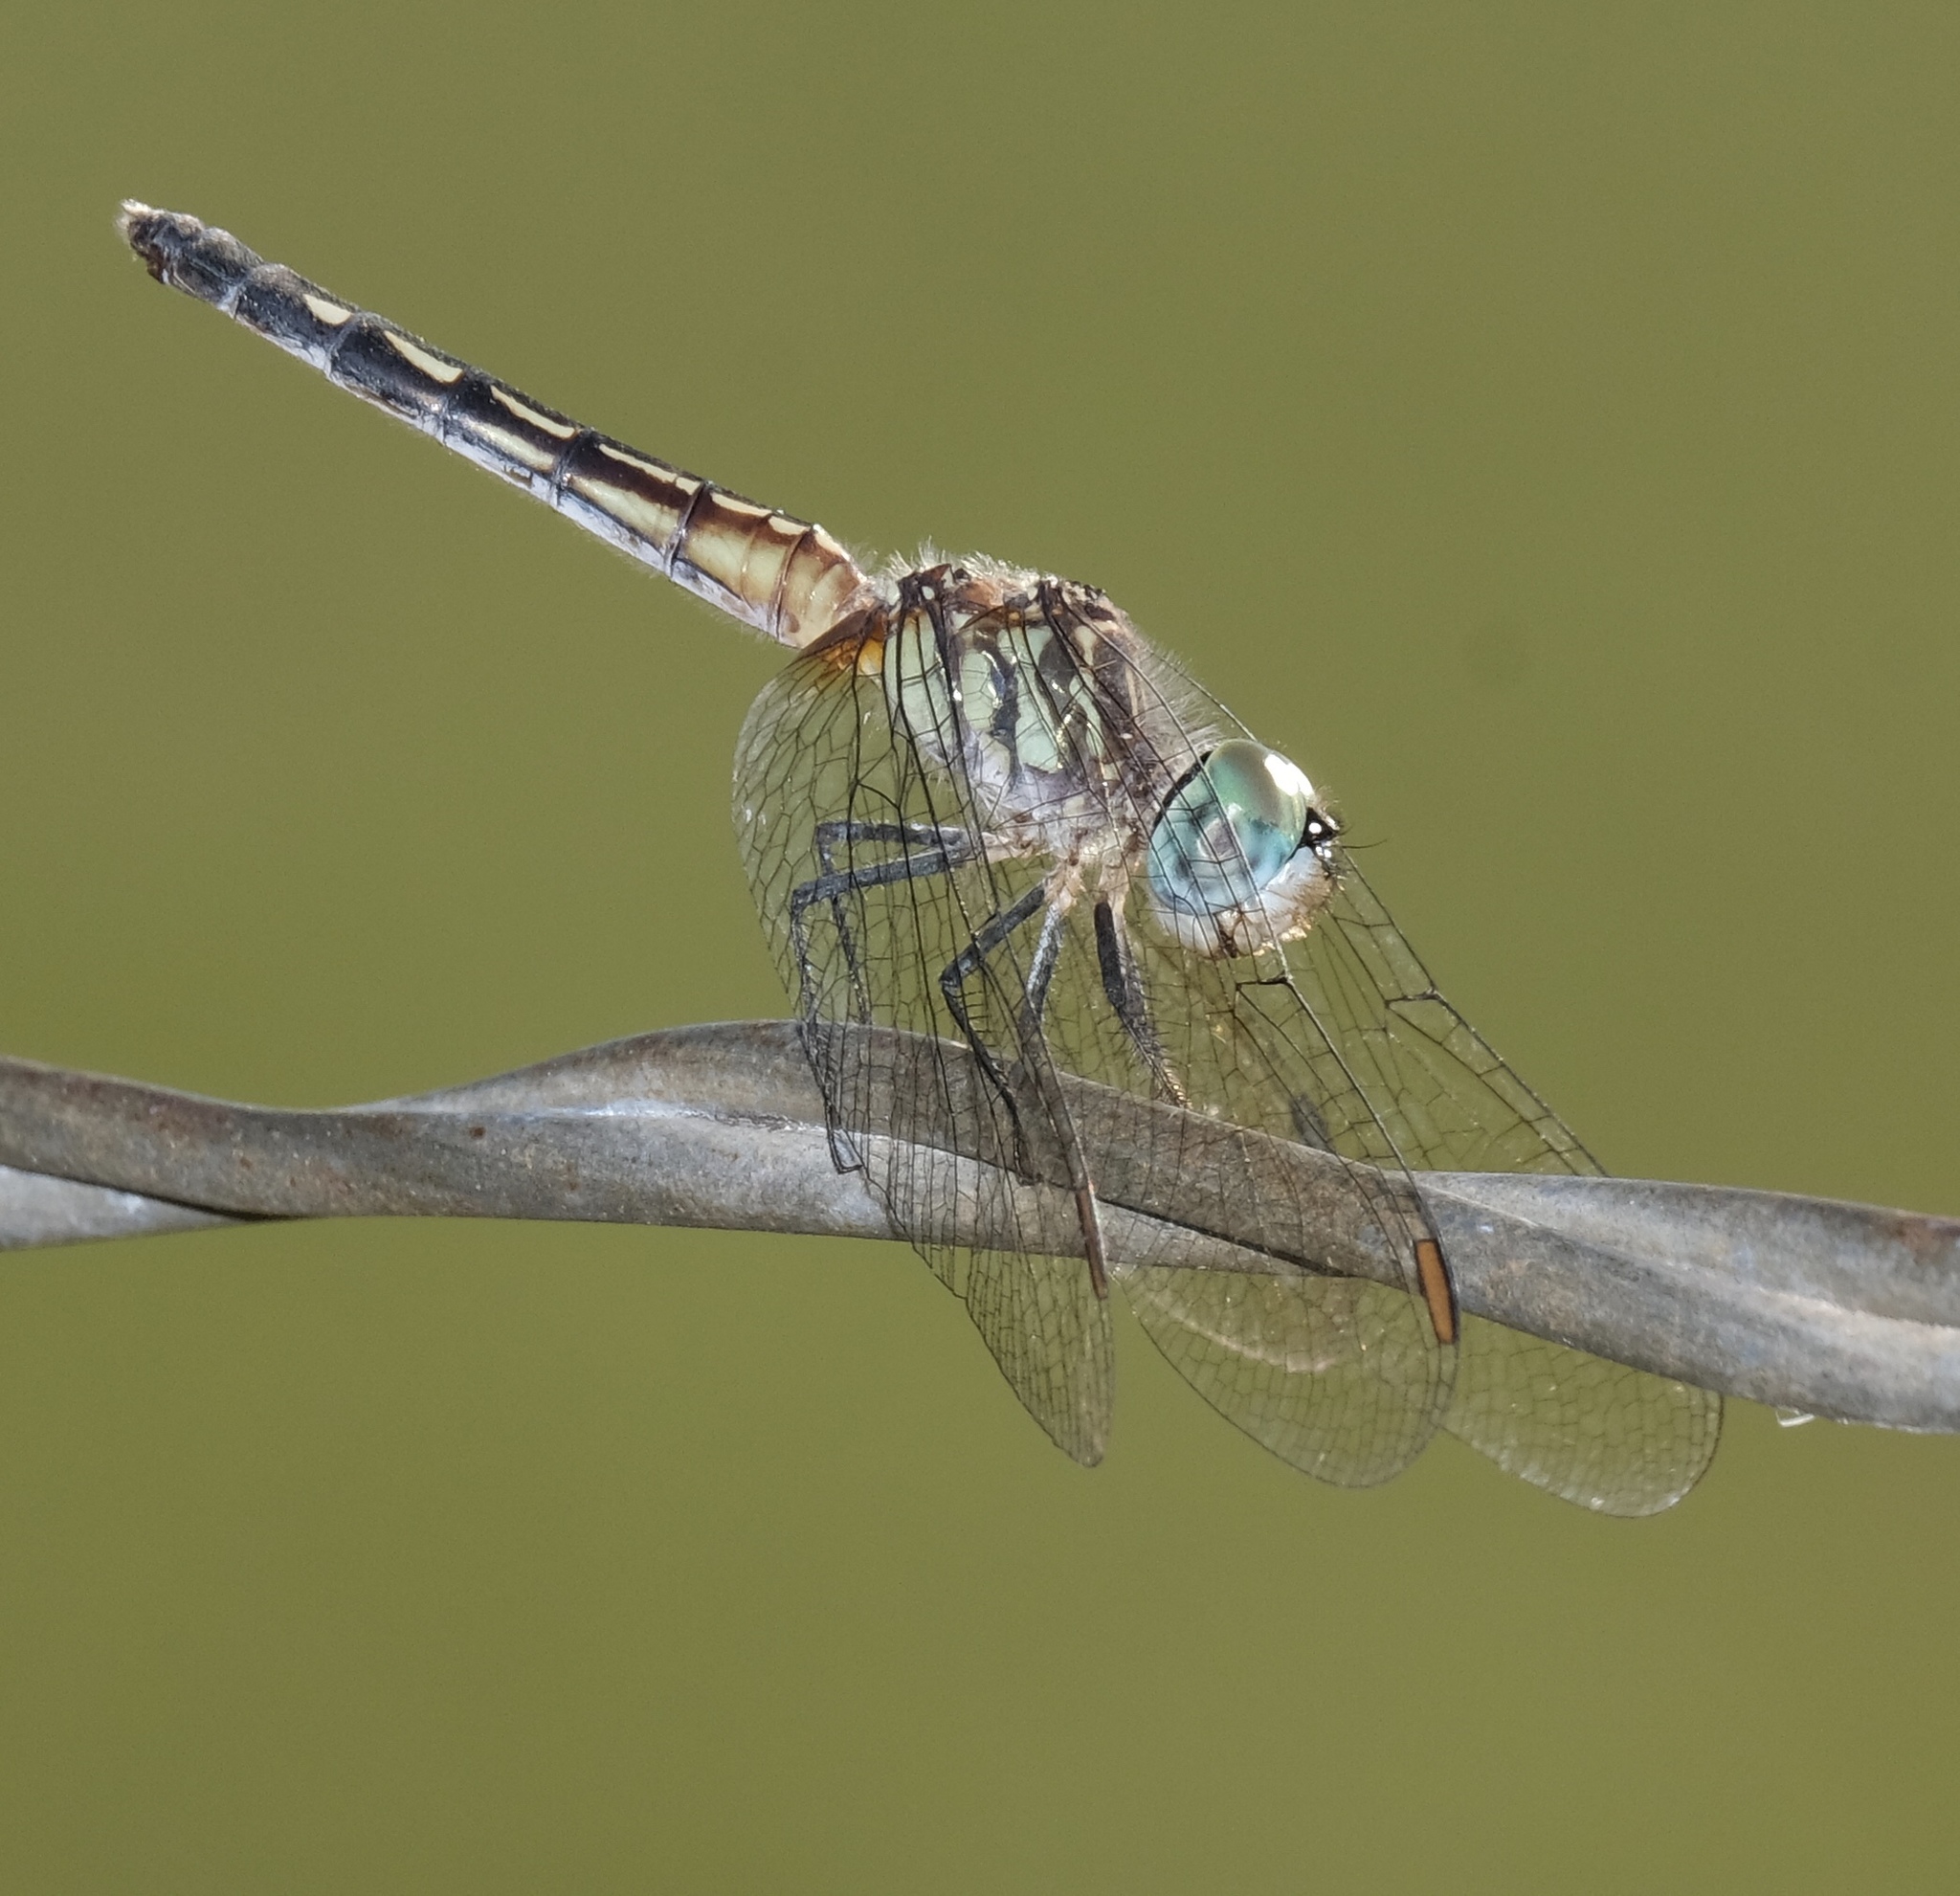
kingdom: Animalia
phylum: Arthropoda
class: Insecta
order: Odonata
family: Libellulidae
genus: Pachydiplax
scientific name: Pachydiplax longipennis
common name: Blue dasher
